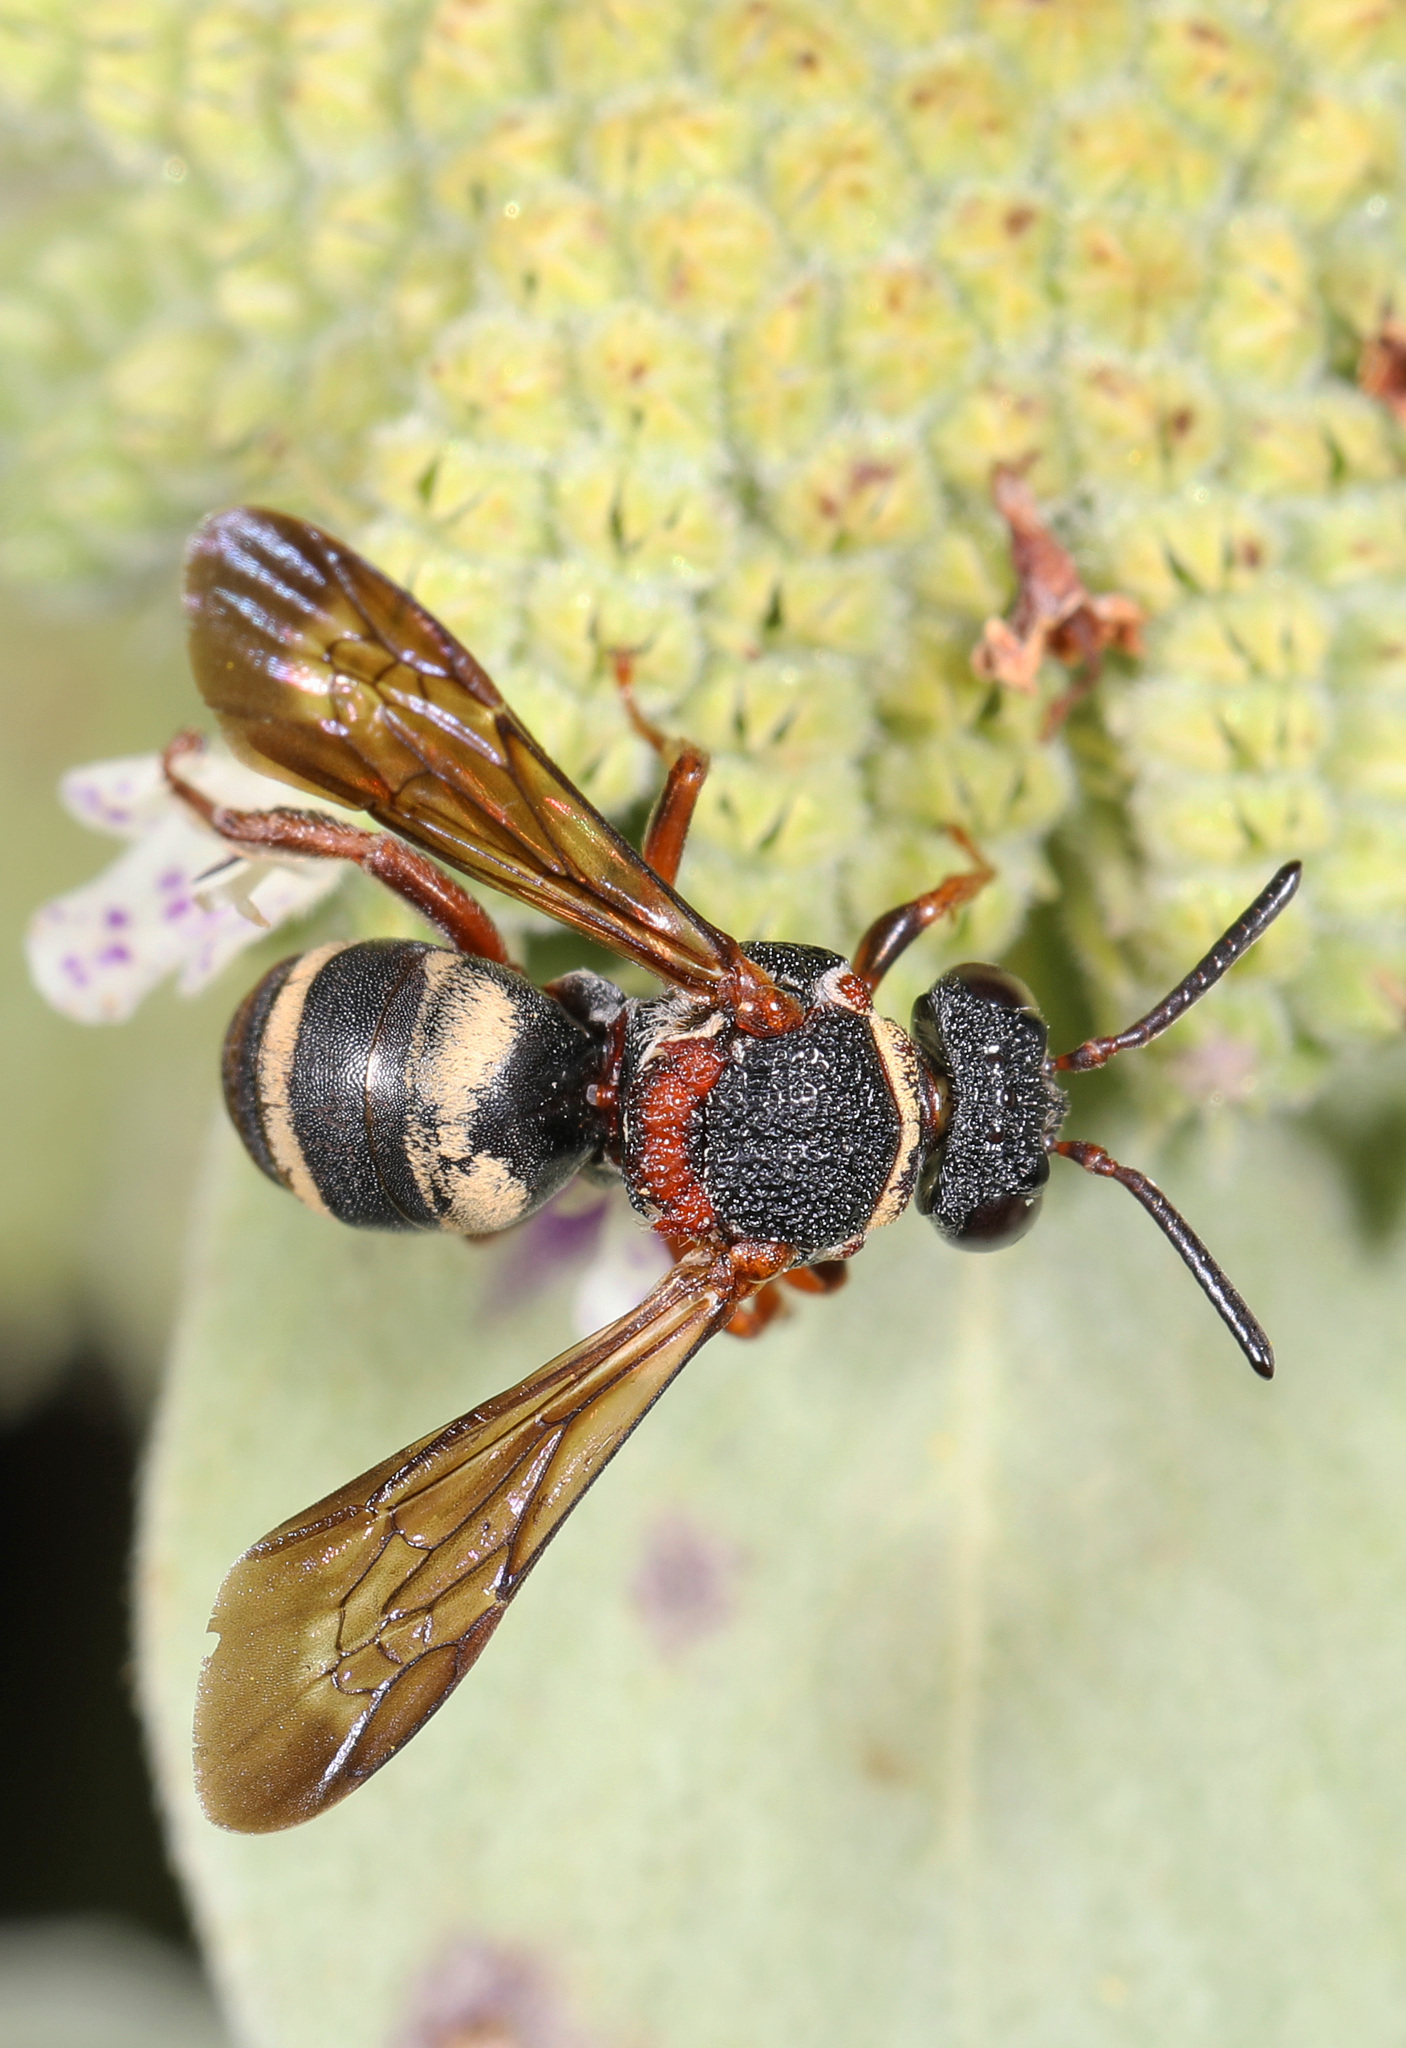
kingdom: Animalia
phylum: Arthropoda
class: Insecta
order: Hymenoptera
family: Apidae
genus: Epeolus
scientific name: Epeolus bifasciatus
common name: Two-banded cellophane-cuckoo
